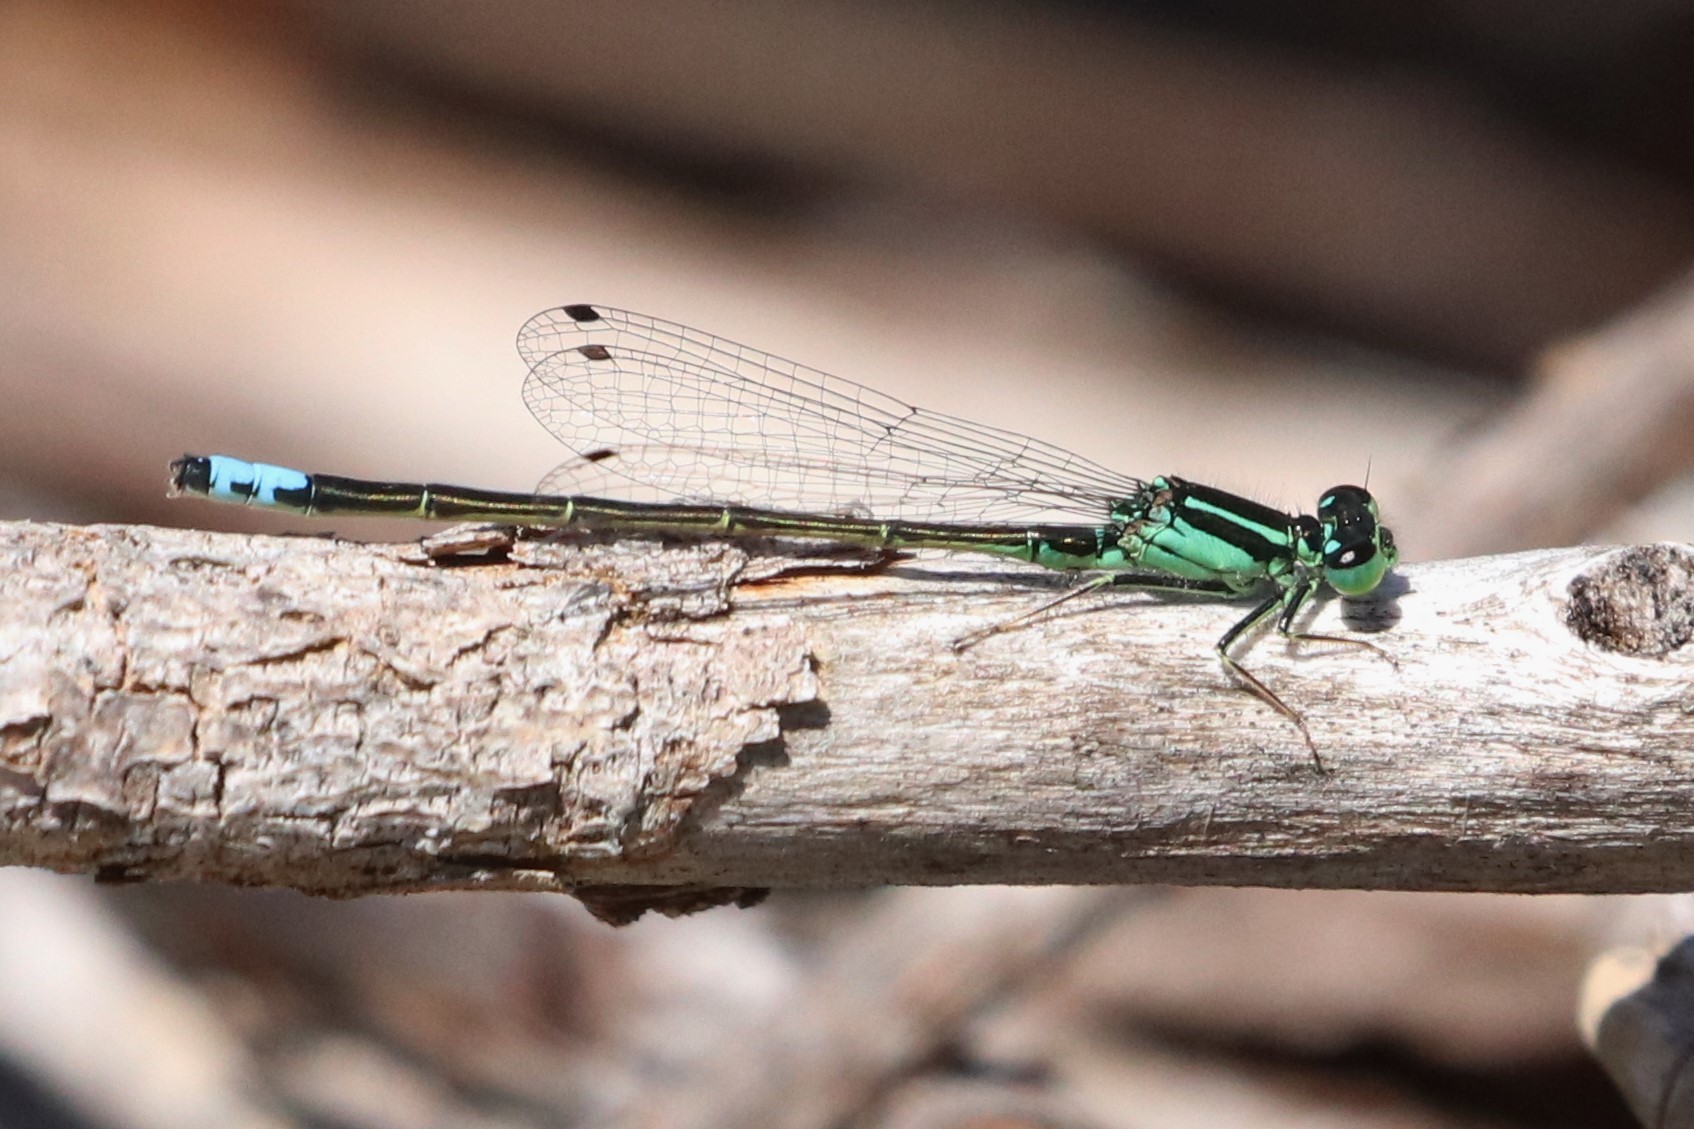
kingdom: Animalia
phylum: Arthropoda
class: Insecta
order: Odonata
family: Coenagrionidae
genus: Ischnura
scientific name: Ischnura verticalis
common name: Eastern forktail
